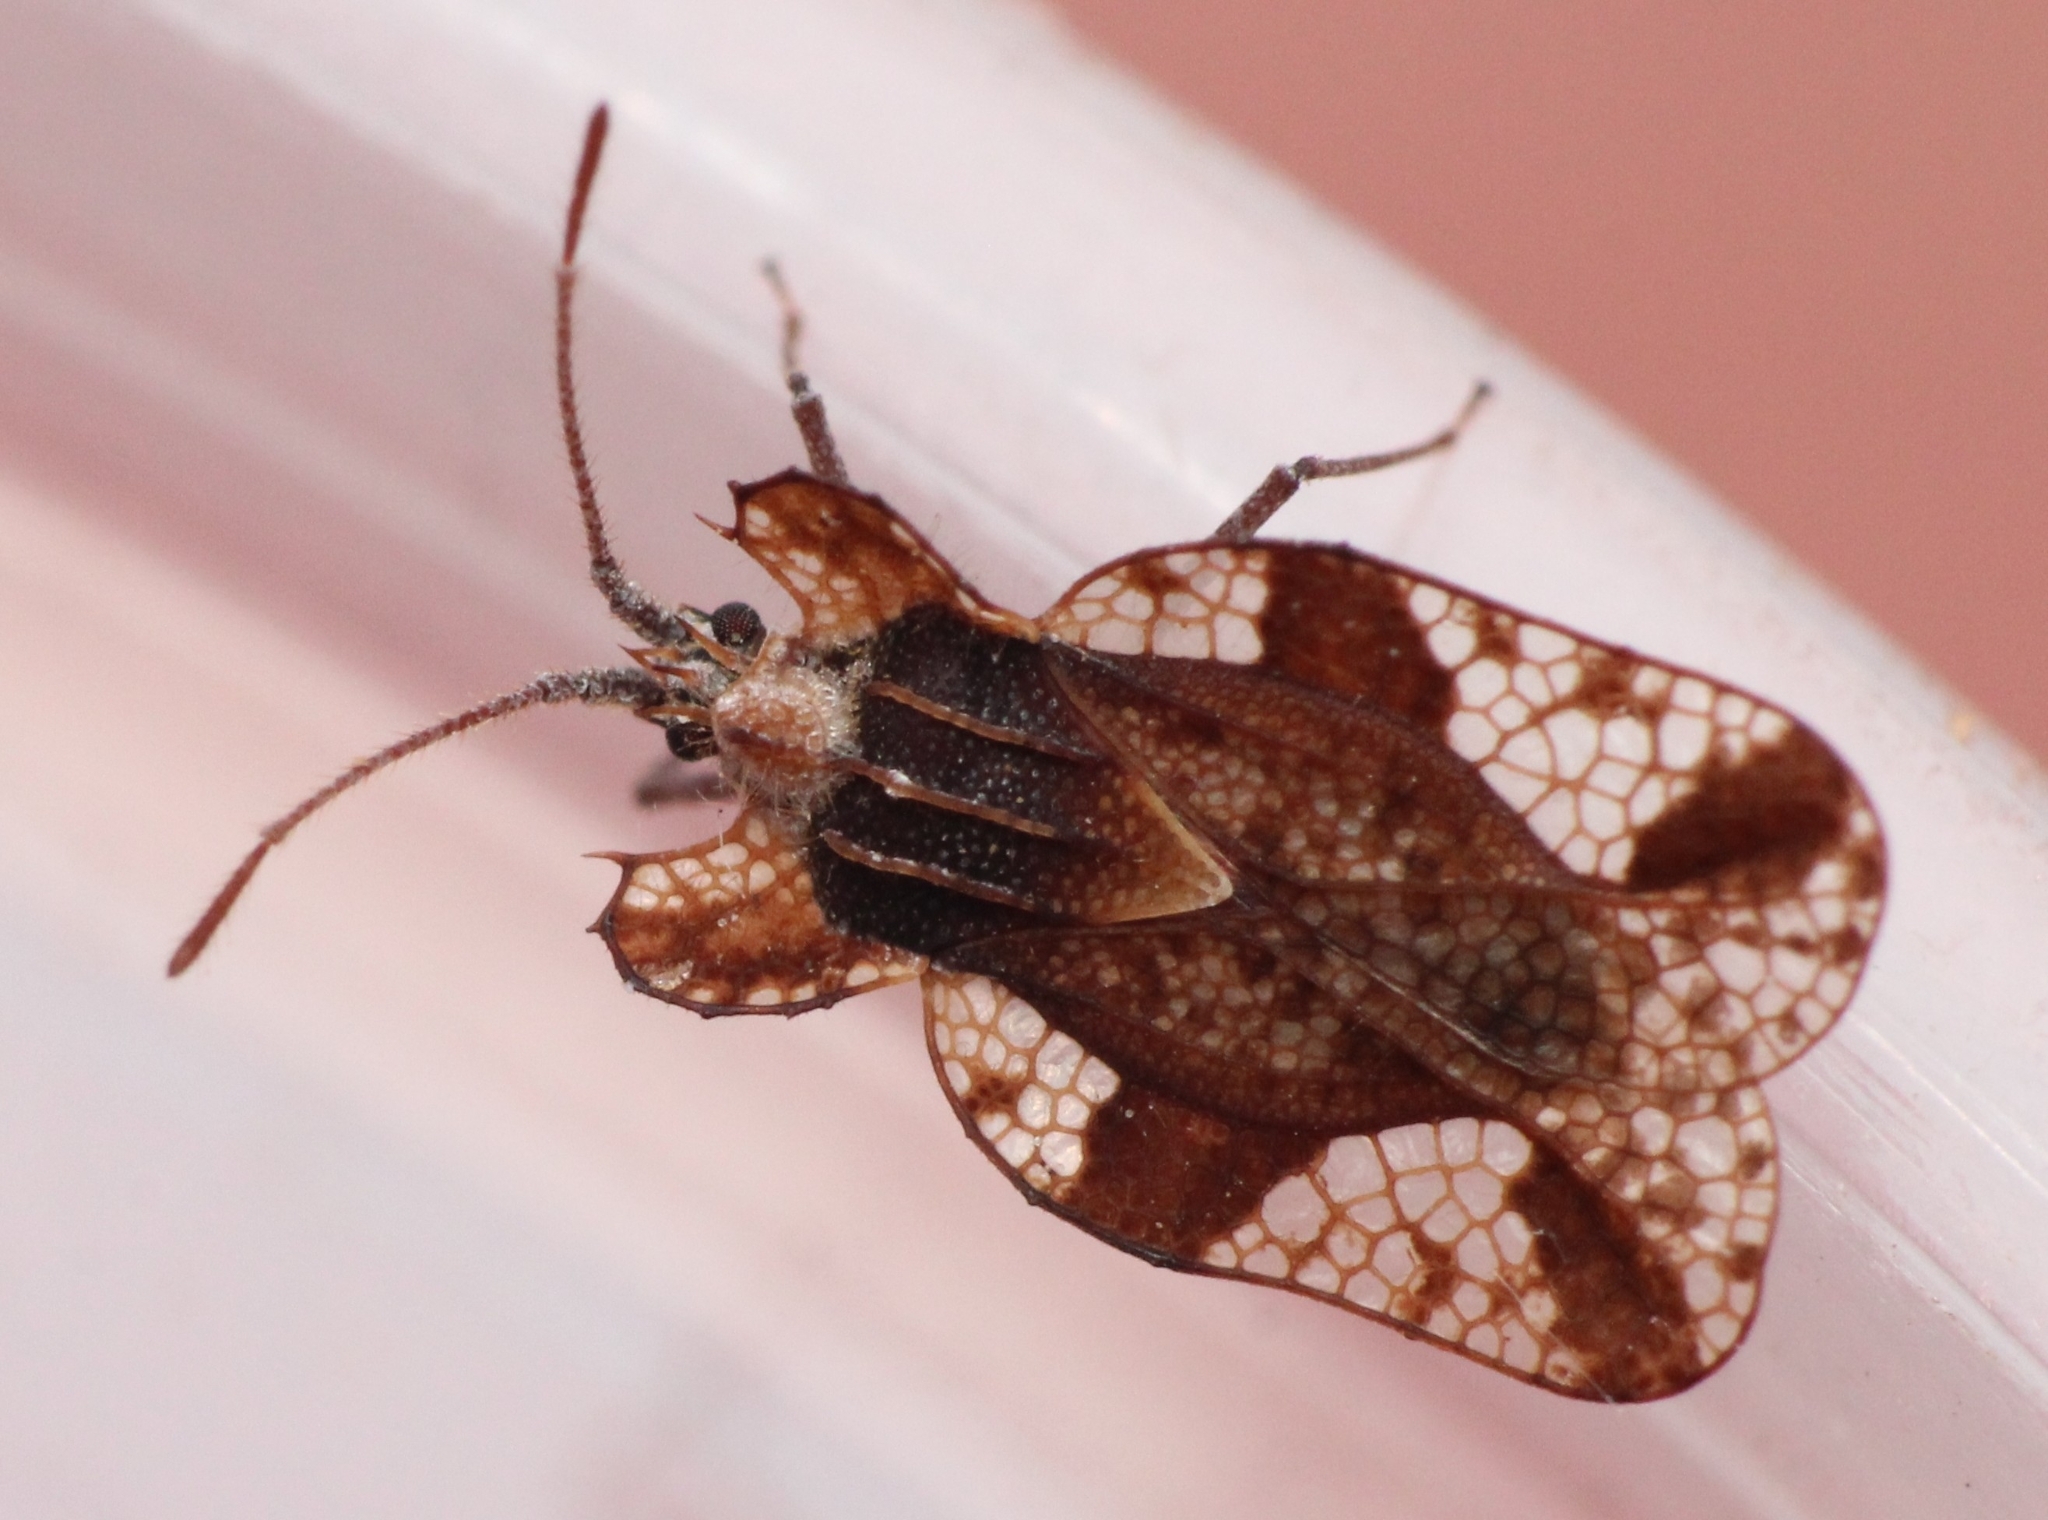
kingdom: Animalia
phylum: Arthropoda
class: Insecta
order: Hemiptera
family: Tingidae
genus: Sinuessa
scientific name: Sinuessa subinermis
